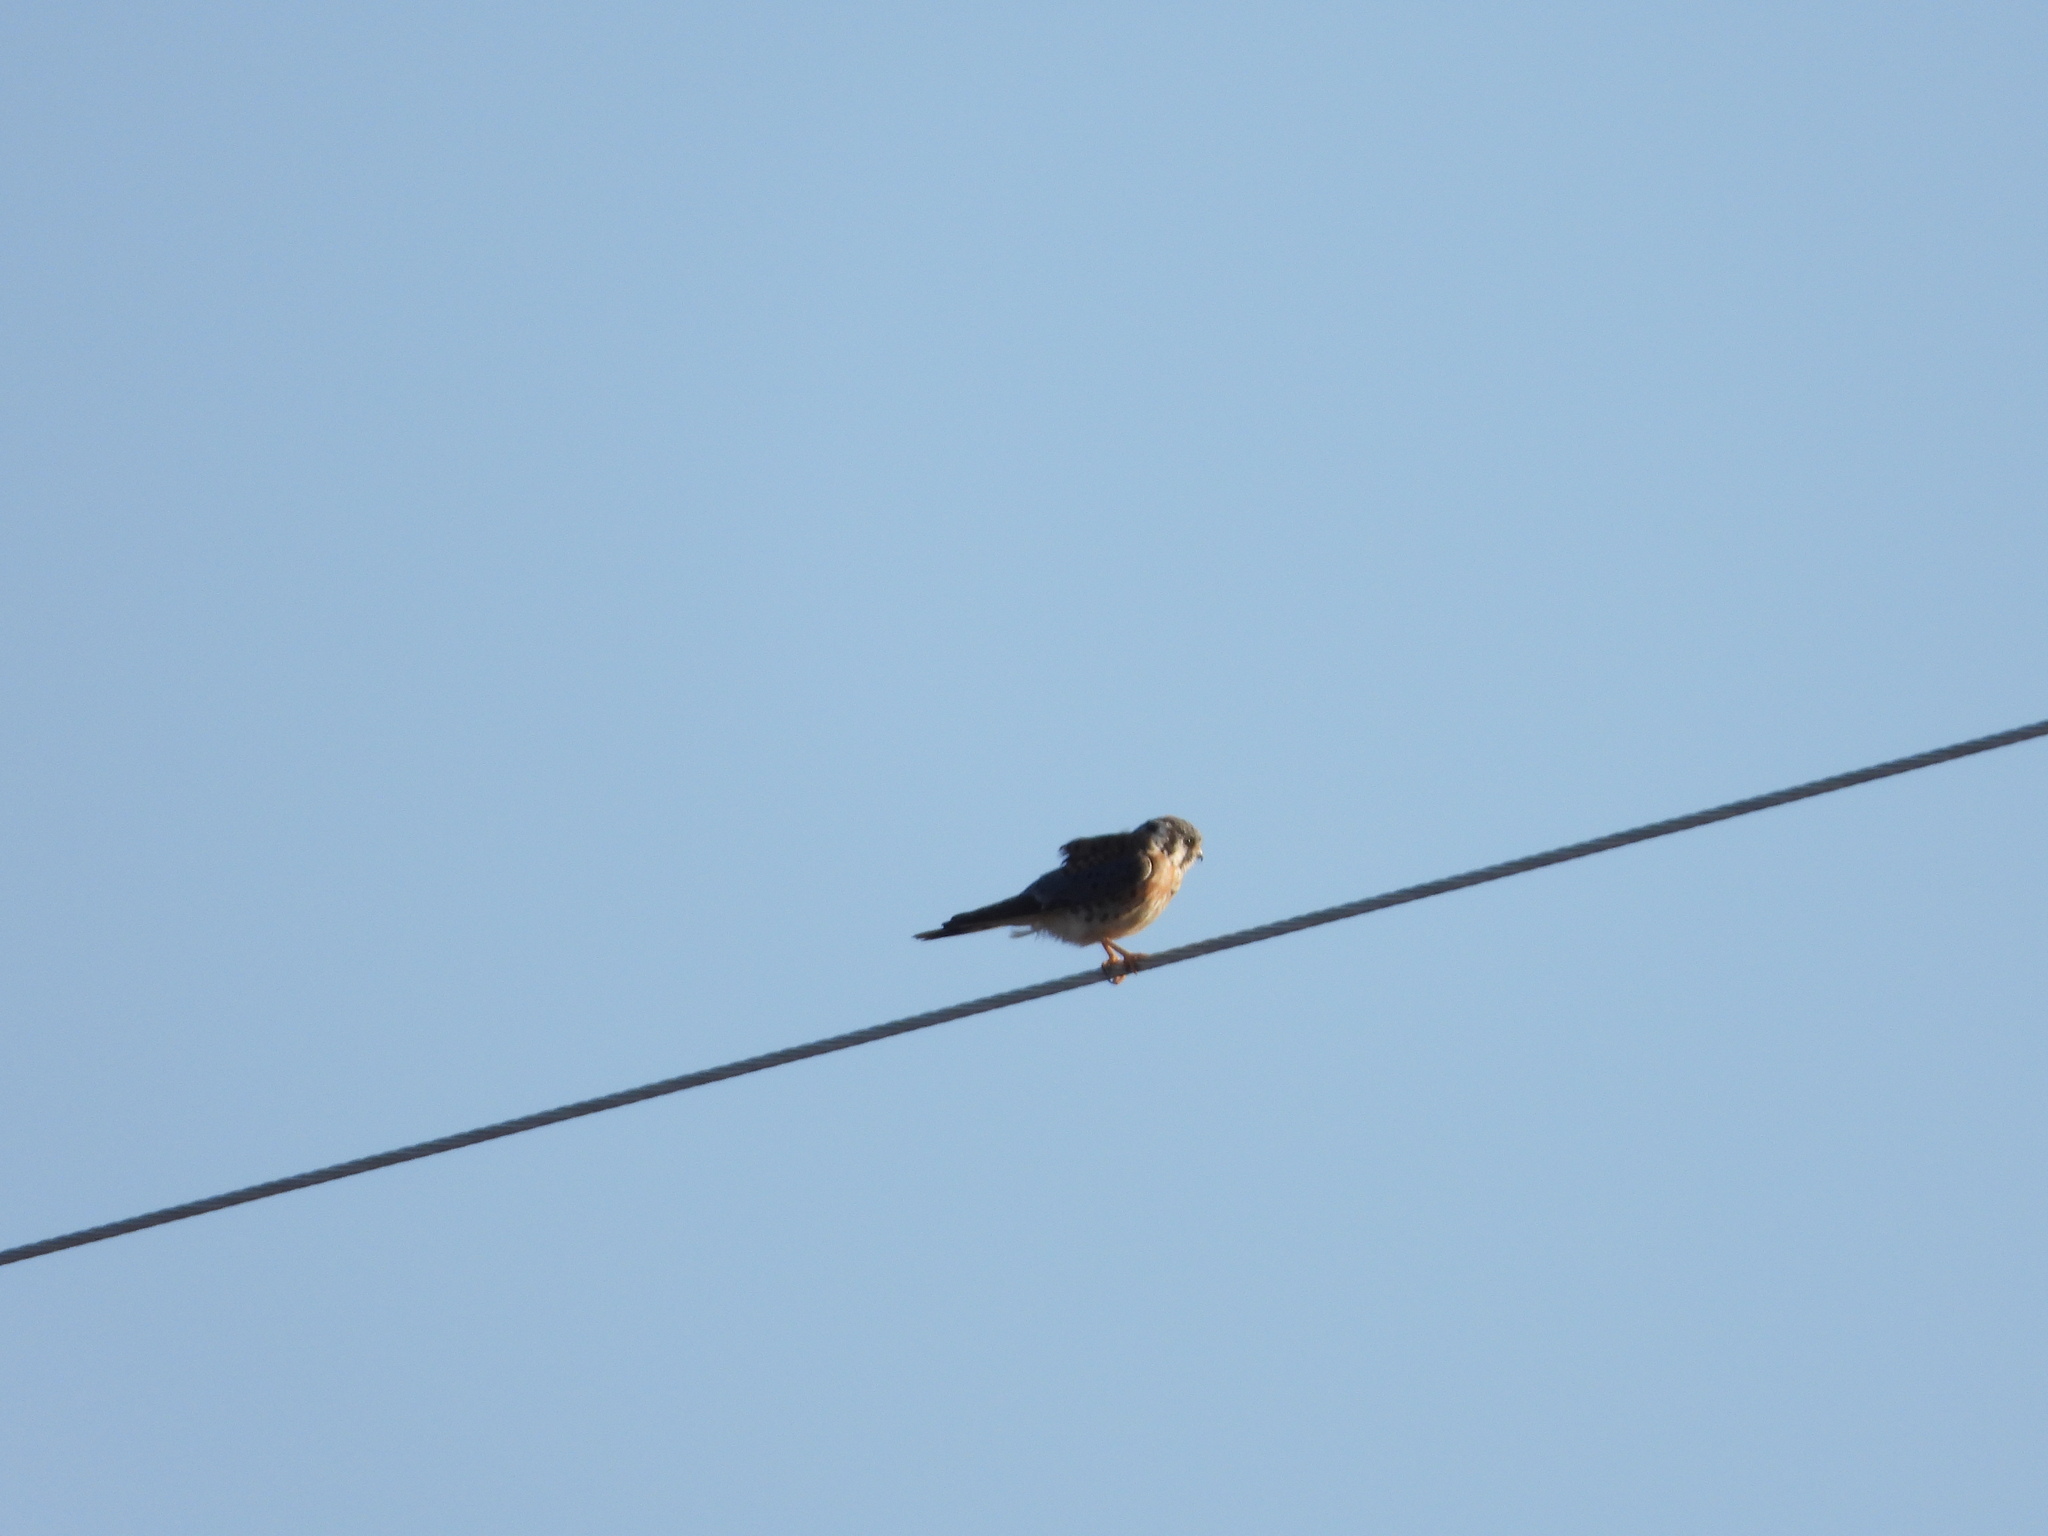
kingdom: Animalia
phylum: Chordata
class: Aves
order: Falconiformes
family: Falconidae
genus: Falco
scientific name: Falco sparverius
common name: American kestrel
